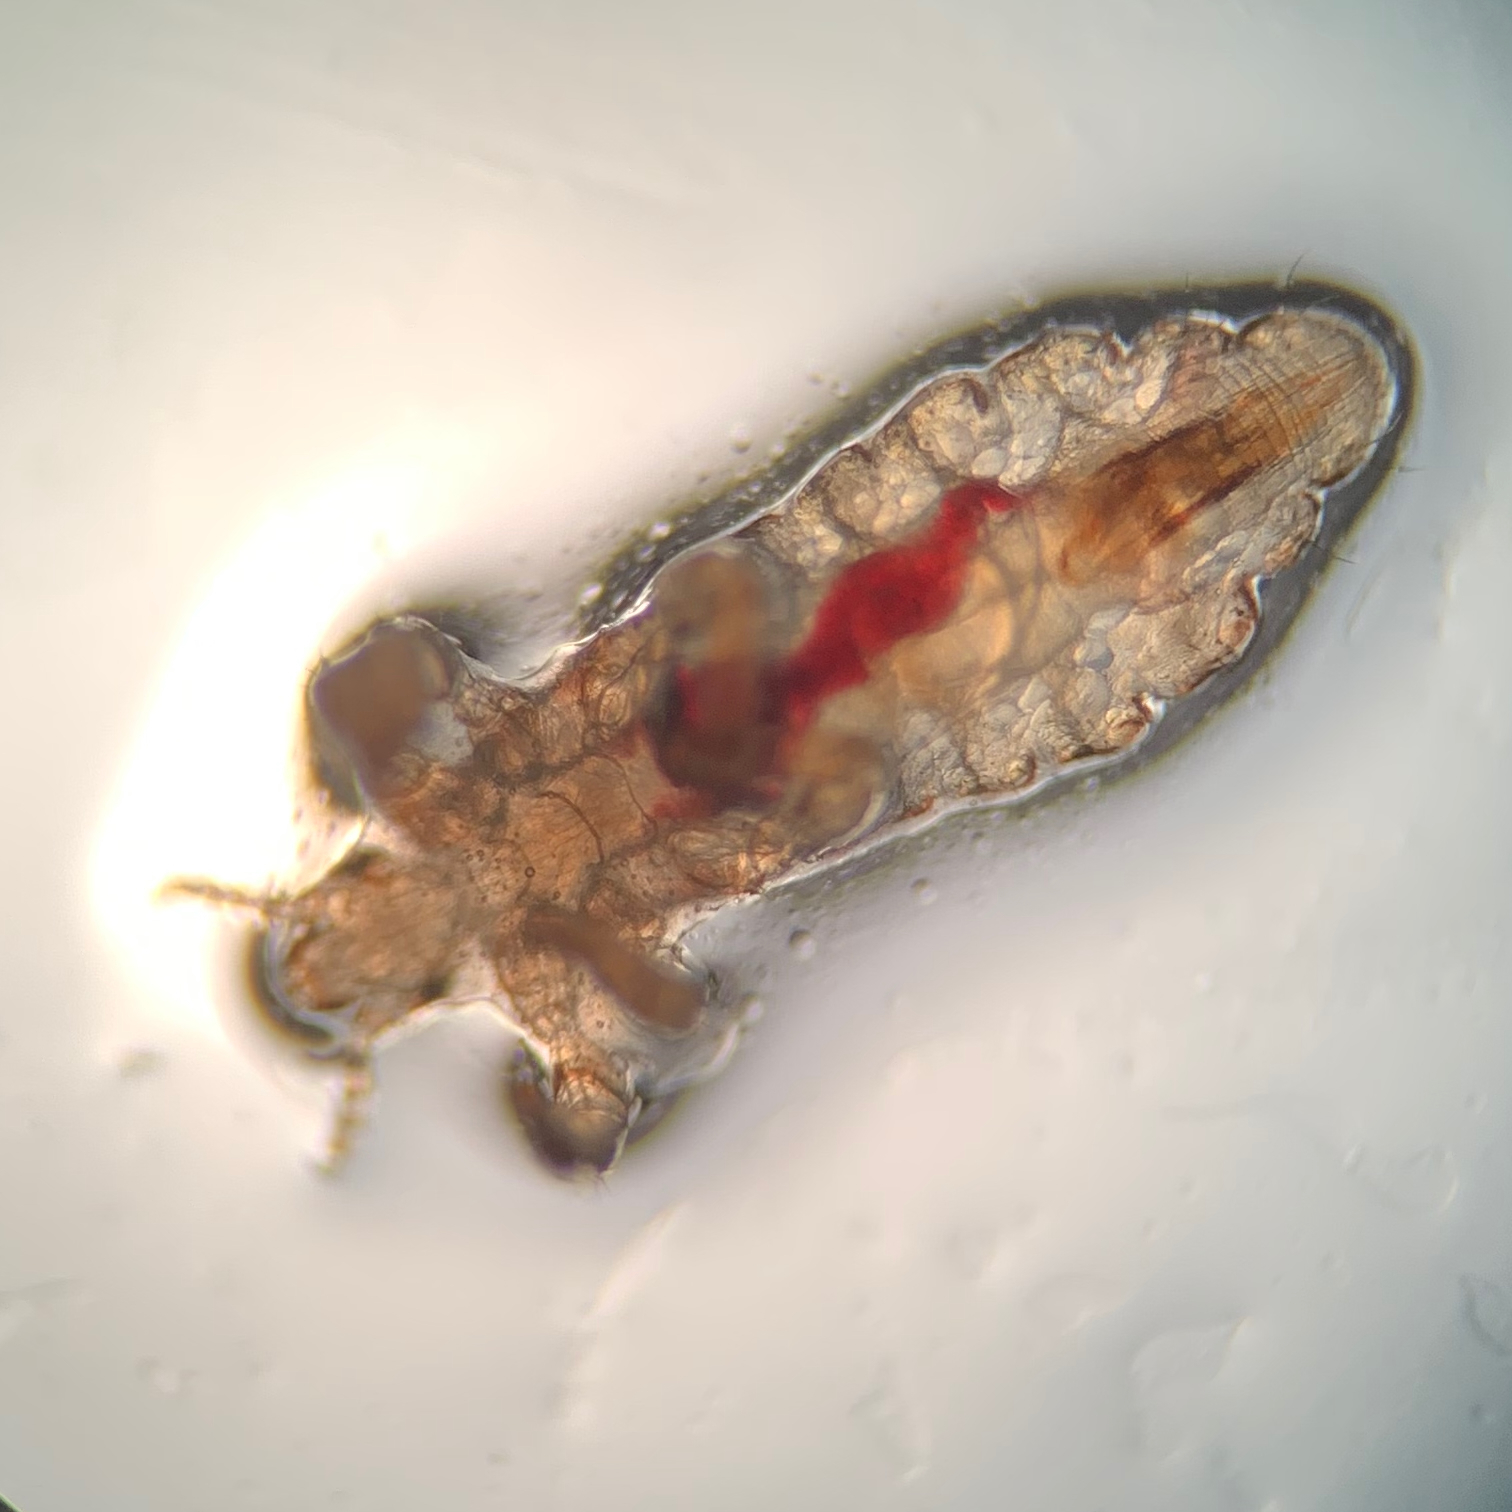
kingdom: Animalia
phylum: Arthropoda
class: Insecta
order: Psocodea
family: Pediculidae
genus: Pediculus
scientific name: Pediculus humanus
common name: Body louse
